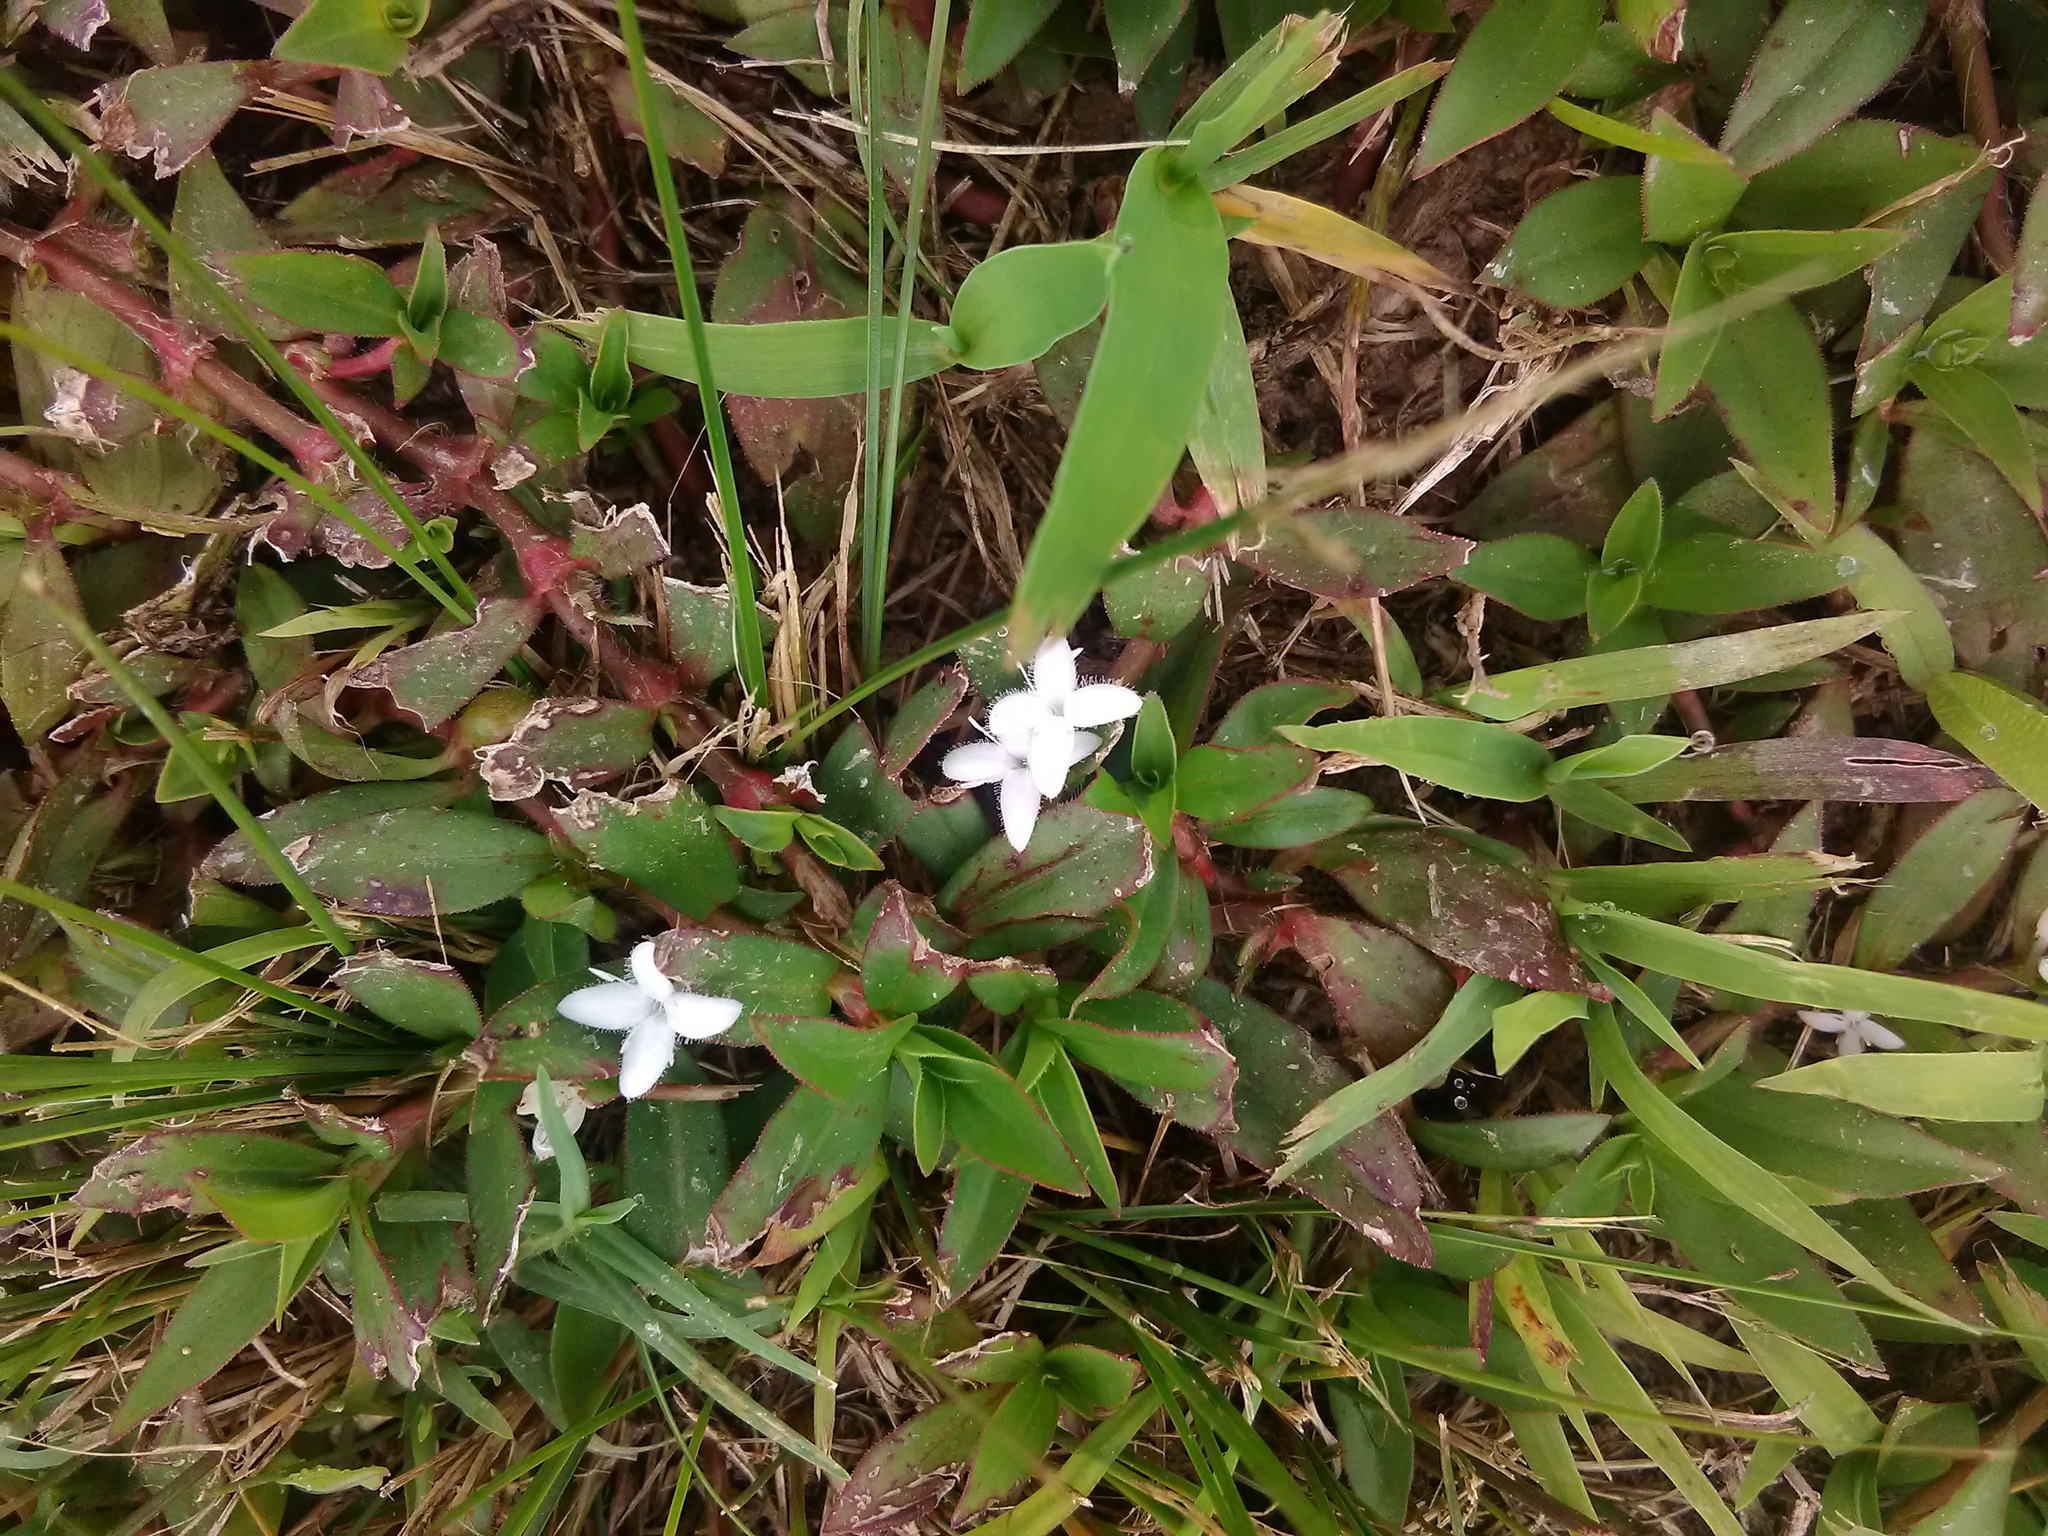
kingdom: Plantae
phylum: Tracheophyta
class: Magnoliopsida
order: Gentianales
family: Rubiaceae
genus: Diodia
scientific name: Diodia virginiana
